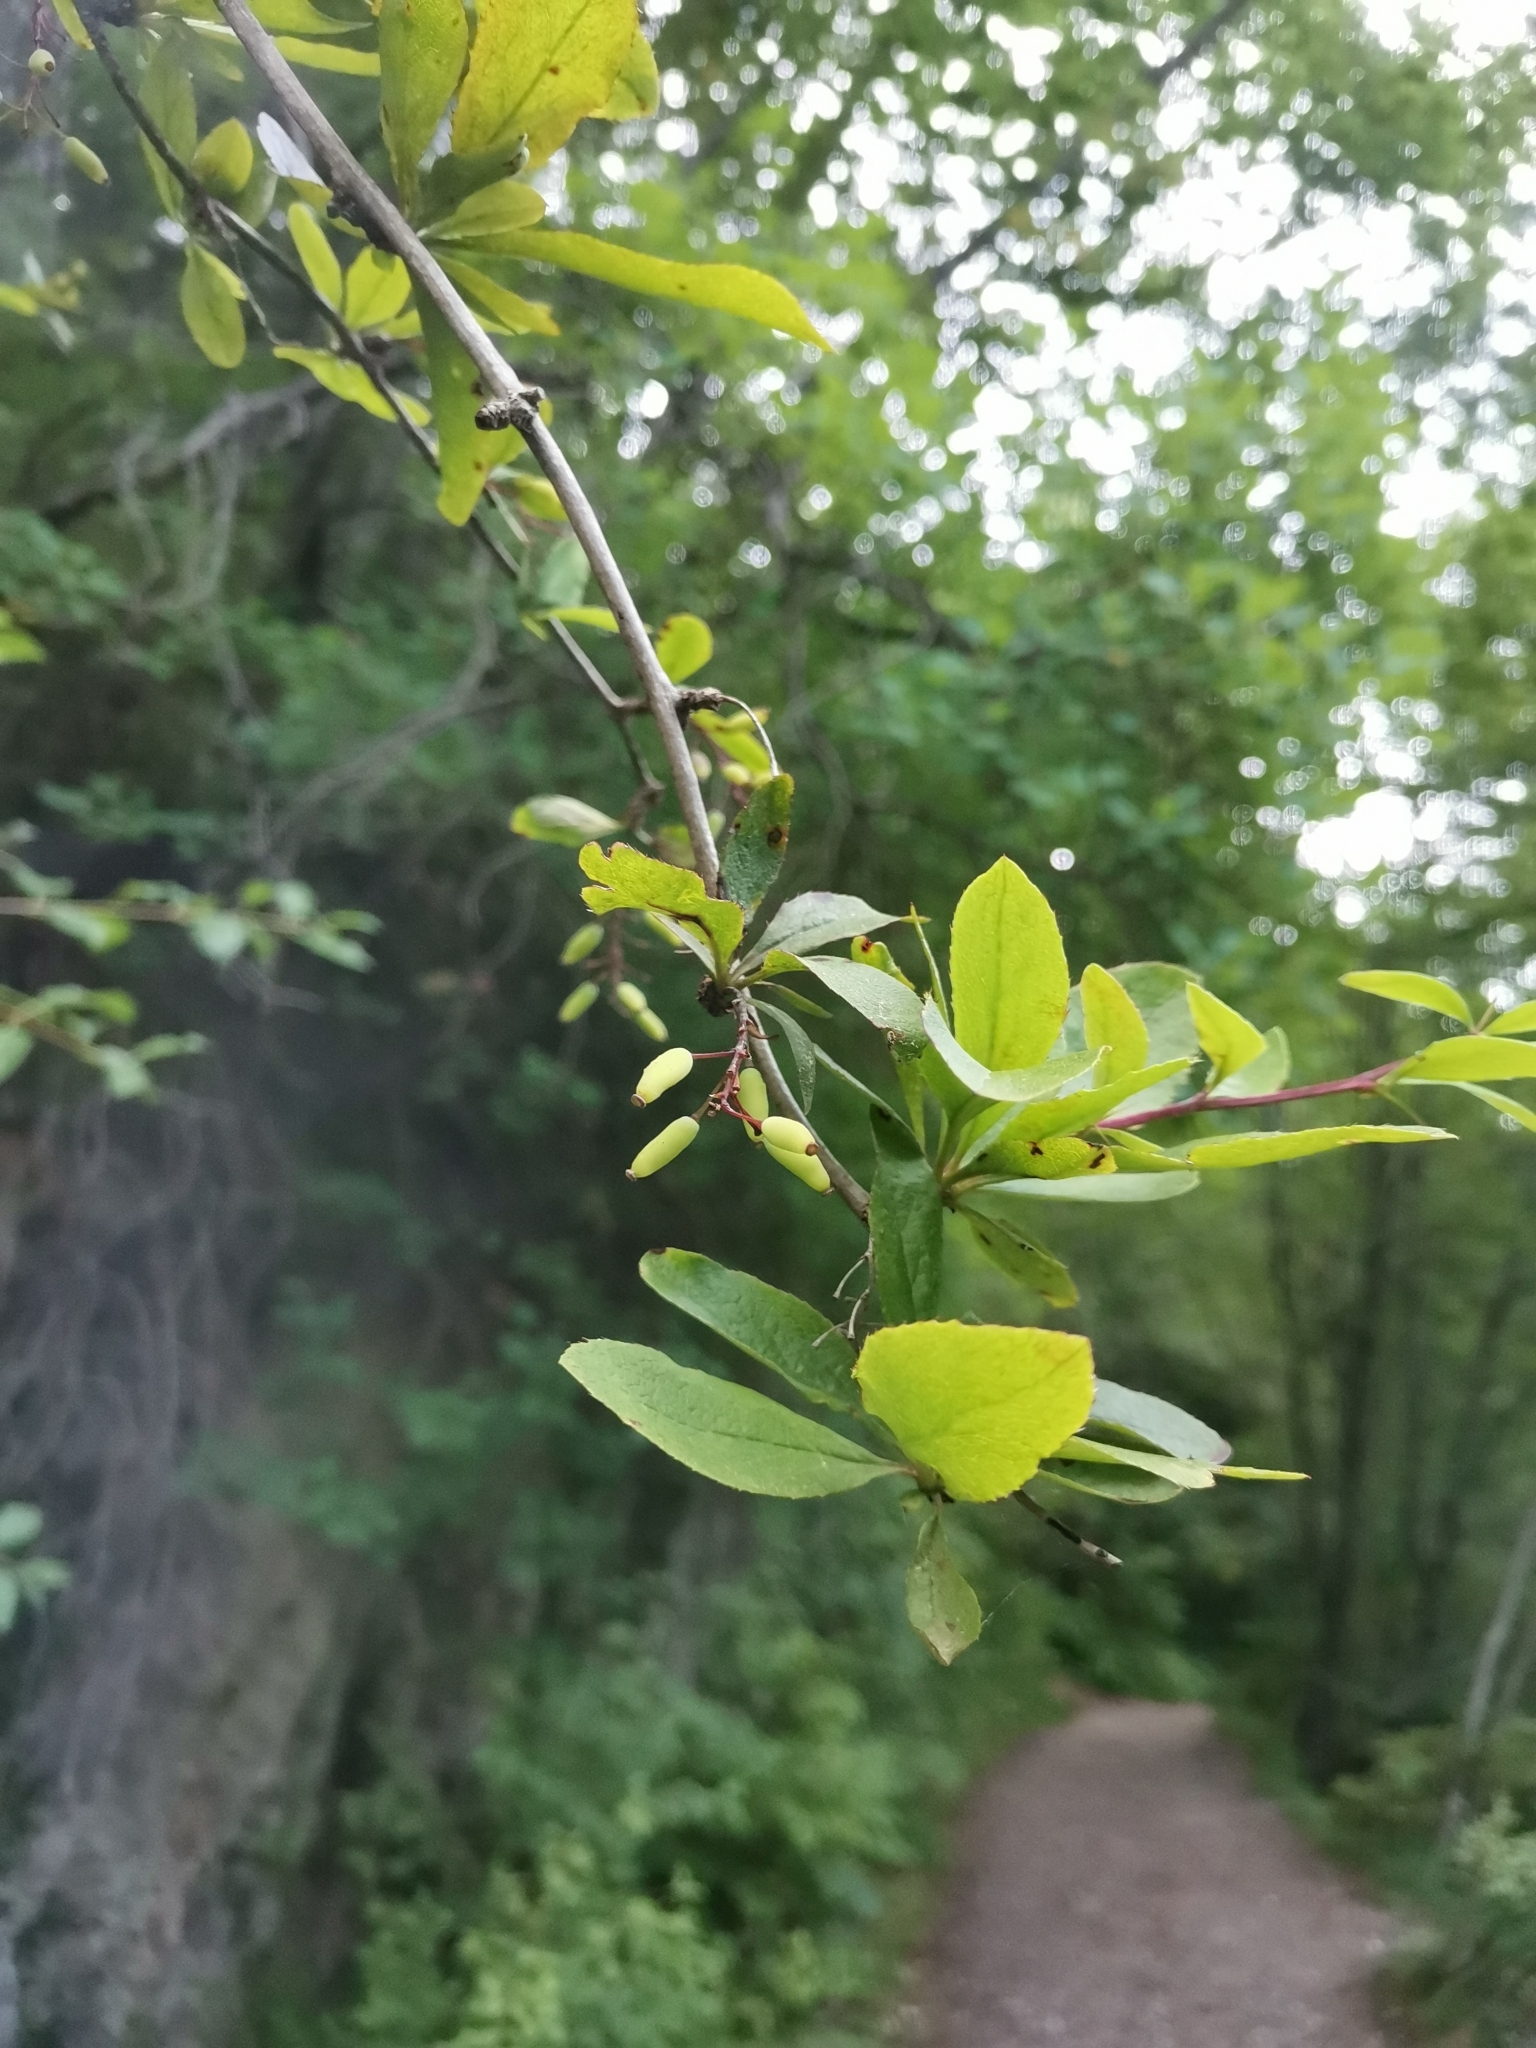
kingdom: Plantae
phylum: Tracheophyta
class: Magnoliopsida
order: Ranunculales
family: Berberidaceae
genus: Berberis
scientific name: Berberis vulgaris
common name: Barberry
